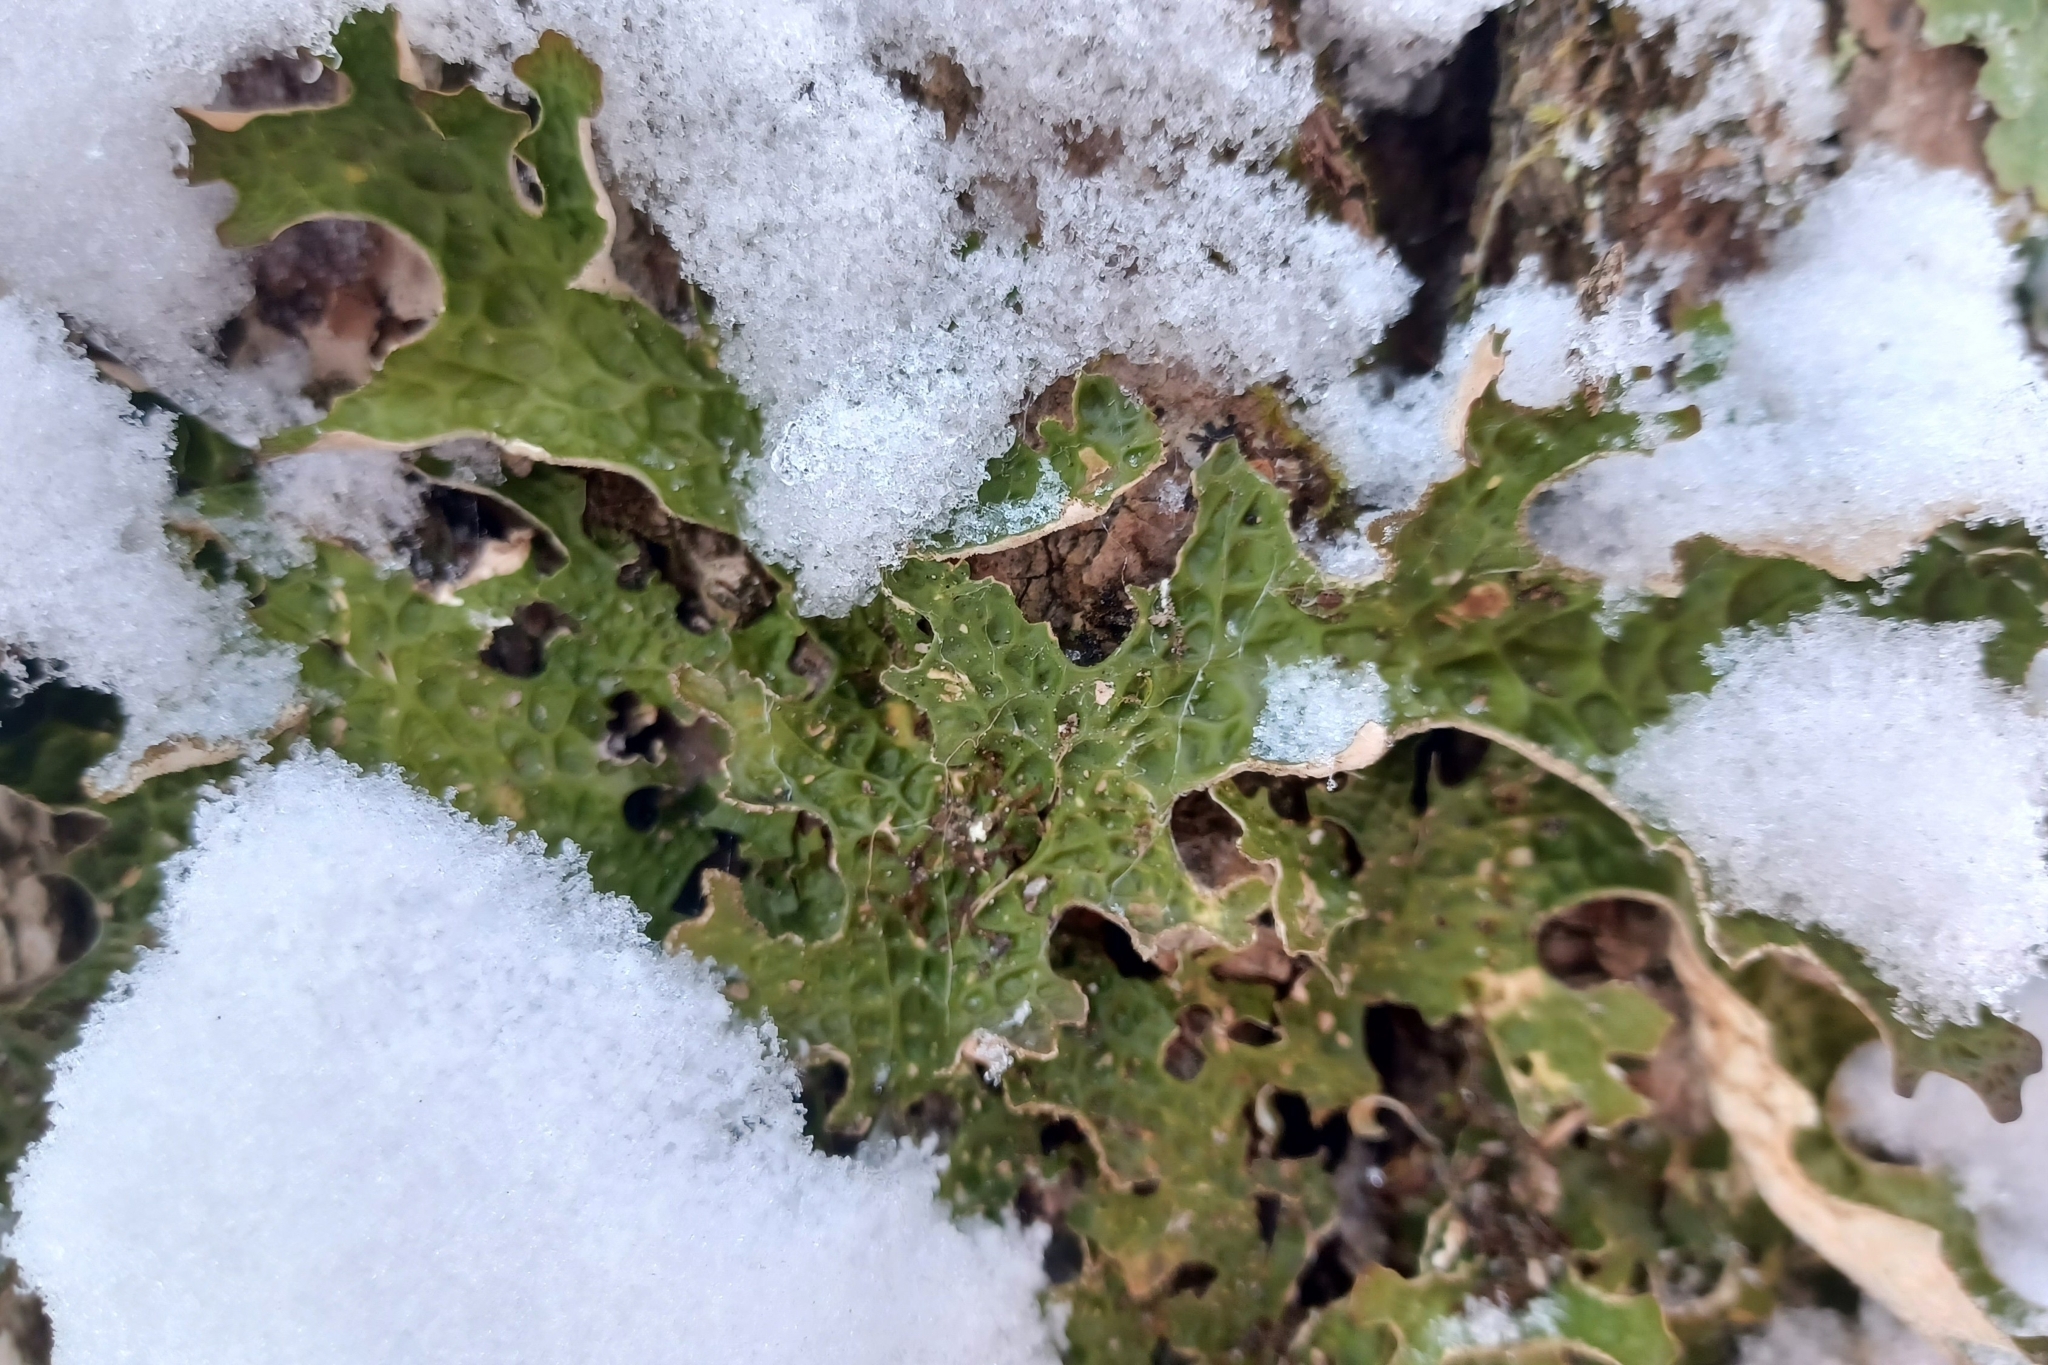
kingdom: Fungi
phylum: Ascomycota
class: Lecanoromycetes
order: Peltigerales
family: Lobariaceae
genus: Lobaria
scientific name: Lobaria pulmonaria
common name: Lungwort
